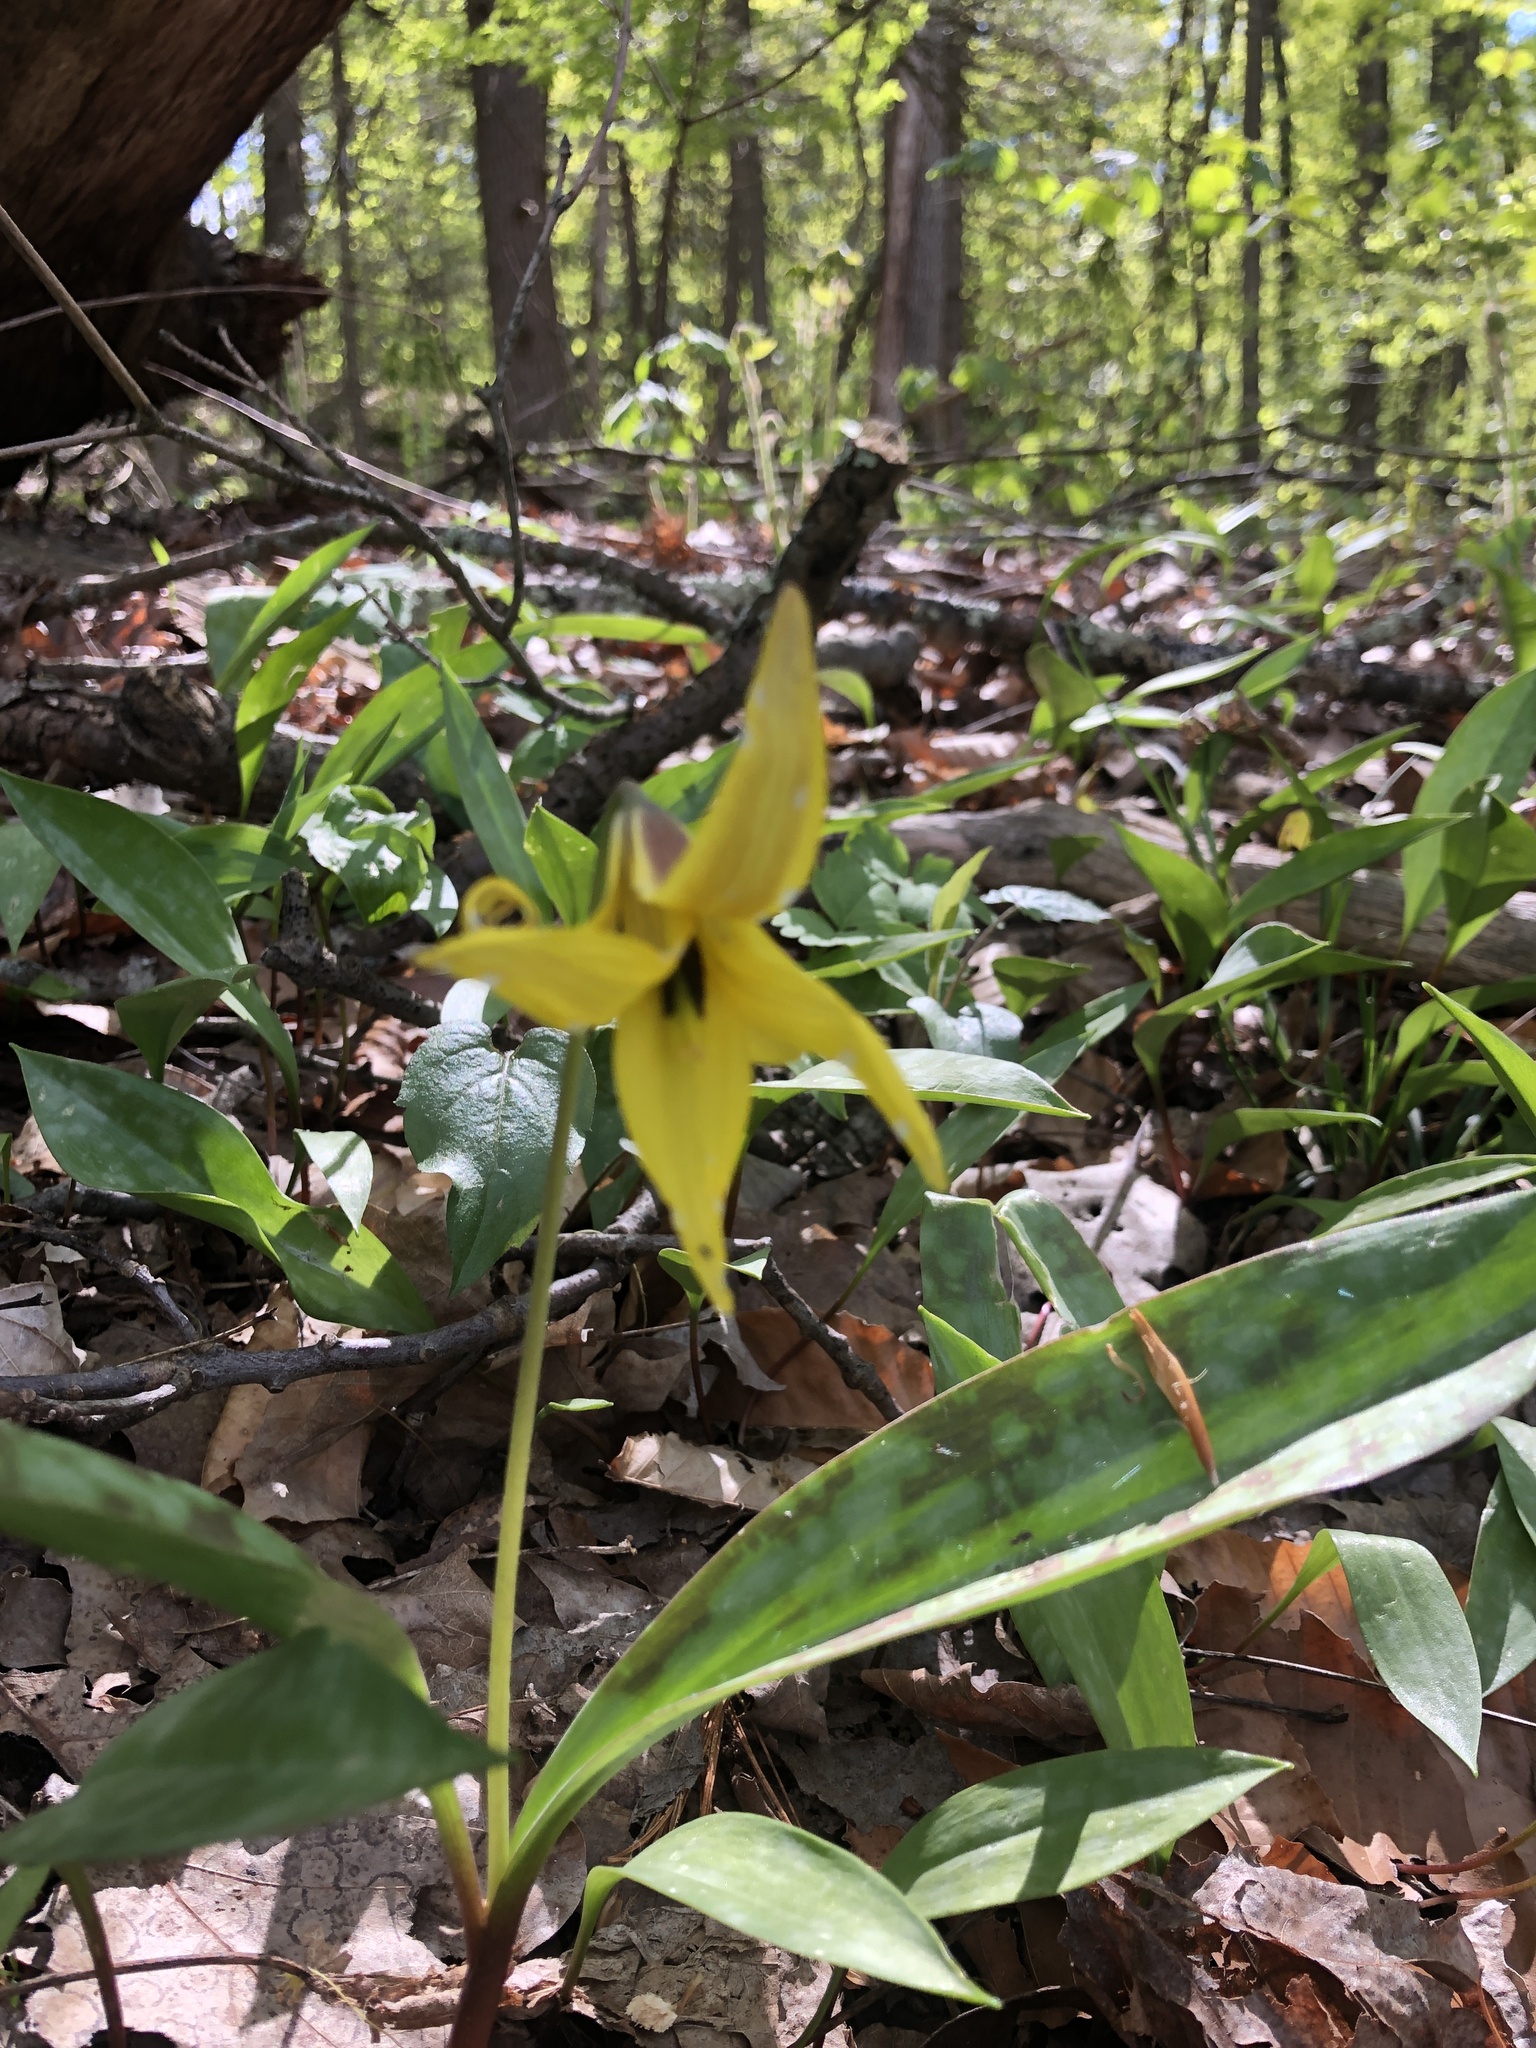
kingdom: Plantae
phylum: Tracheophyta
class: Liliopsida
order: Liliales
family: Liliaceae
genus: Erythronium
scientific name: Erythronium americanum
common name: Yellow adder's-tongue
